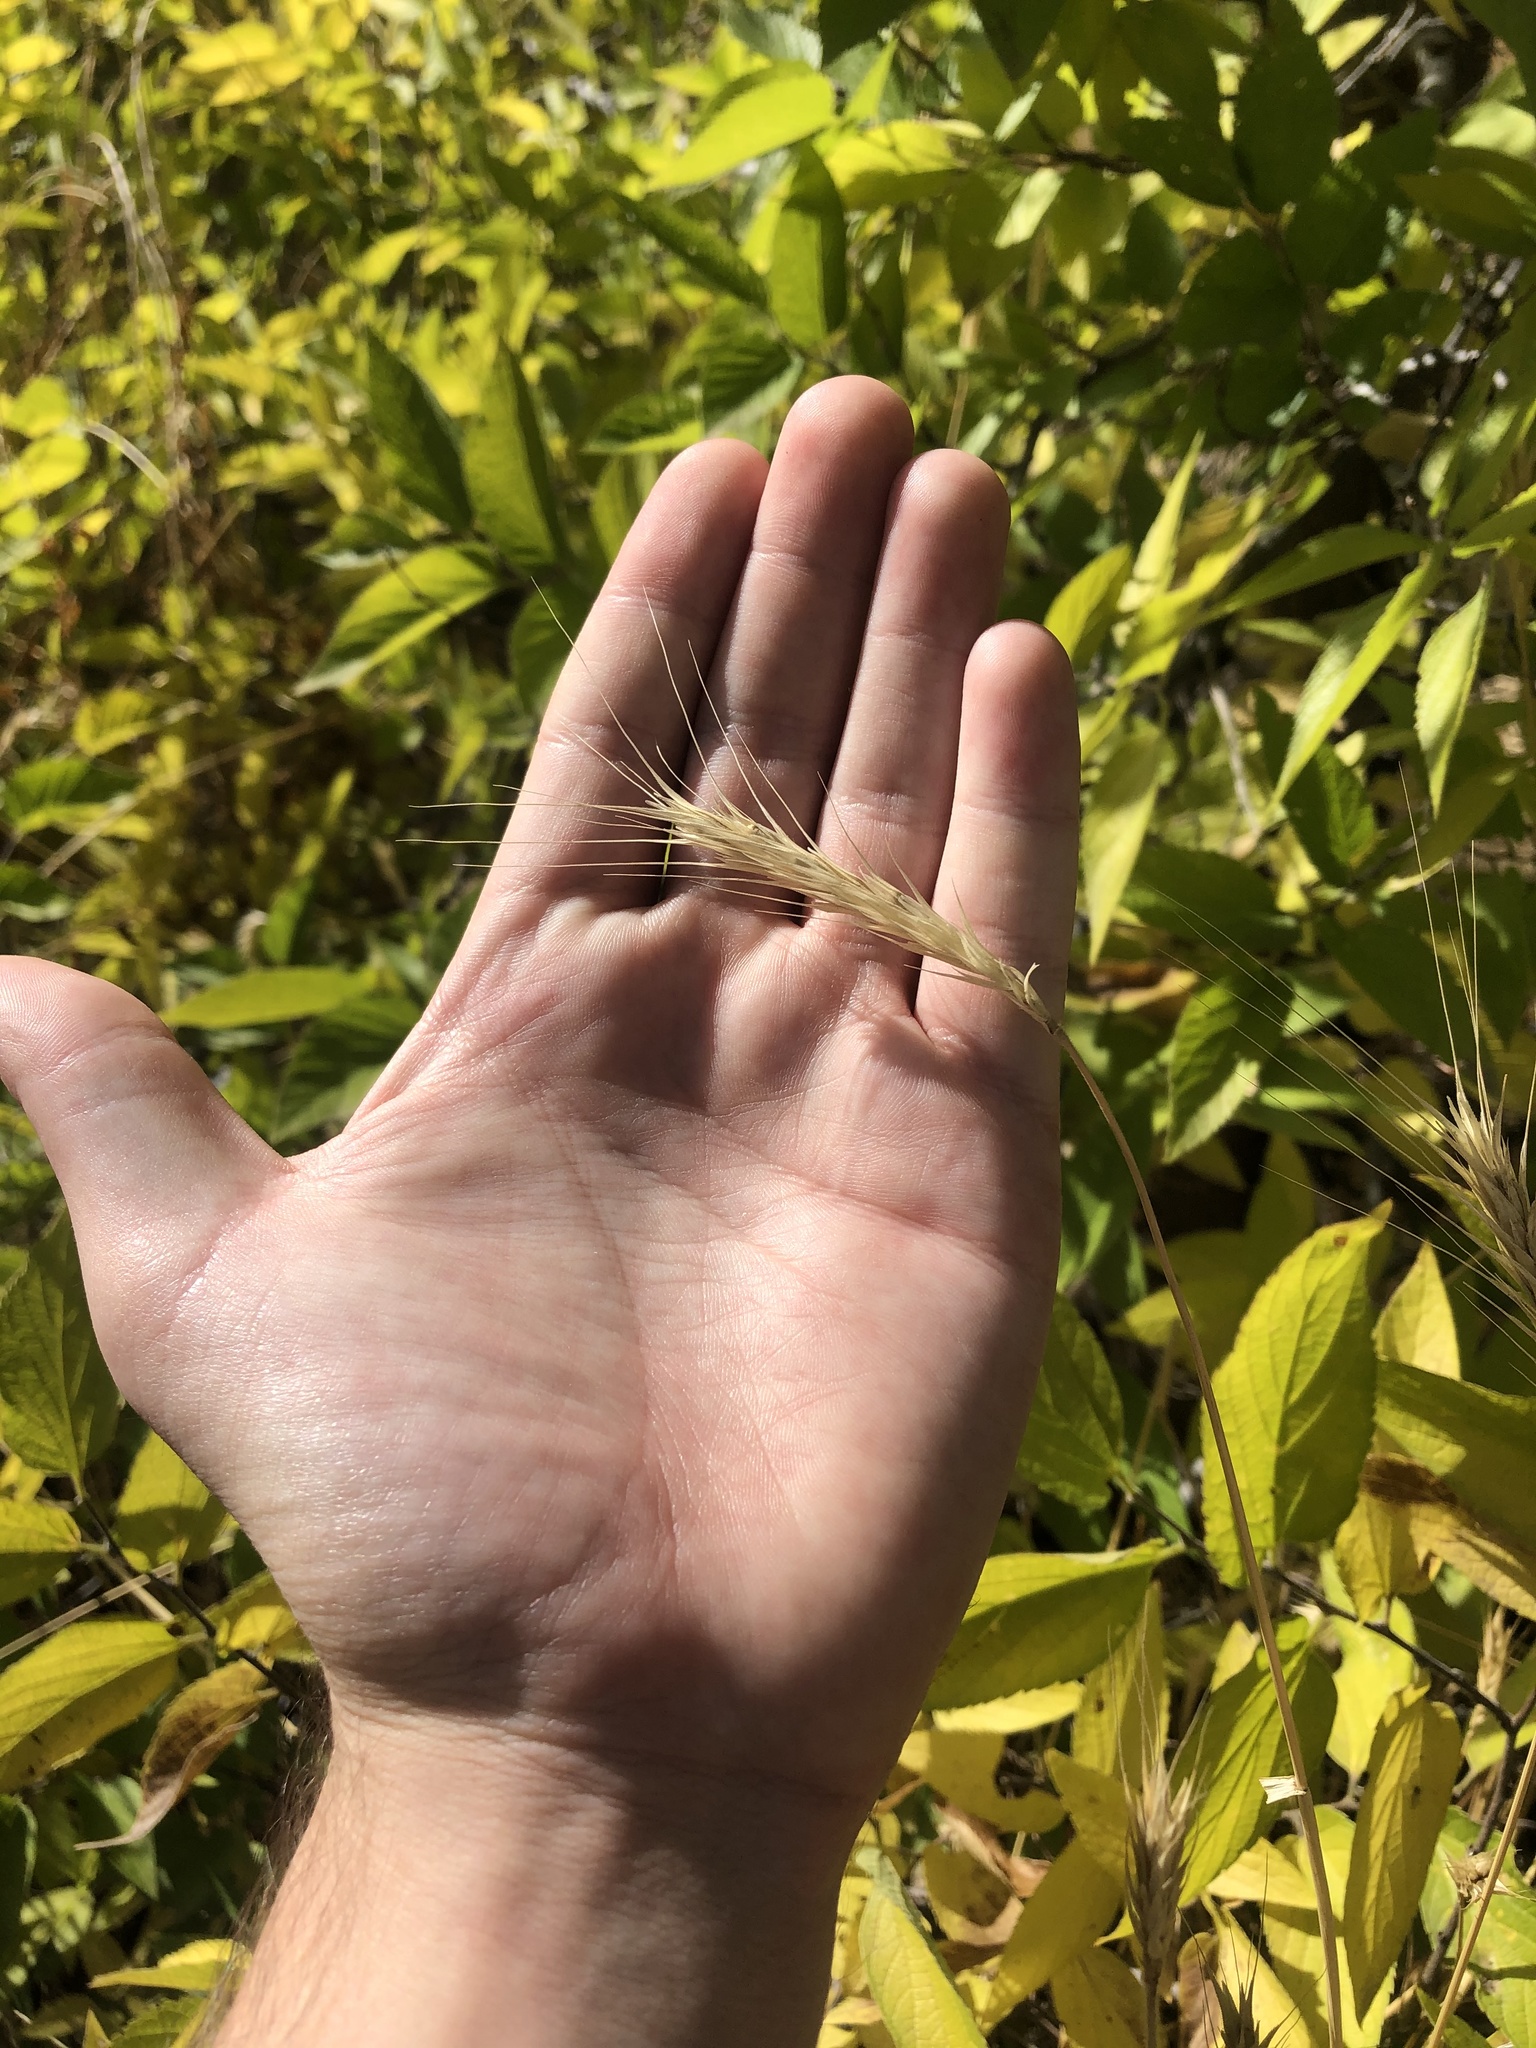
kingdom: Plantae
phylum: Tracheophyta
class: Liliopsida
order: Poales
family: Poaceae
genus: Elymus
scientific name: Elymus canadensis
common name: Canada wild rye
